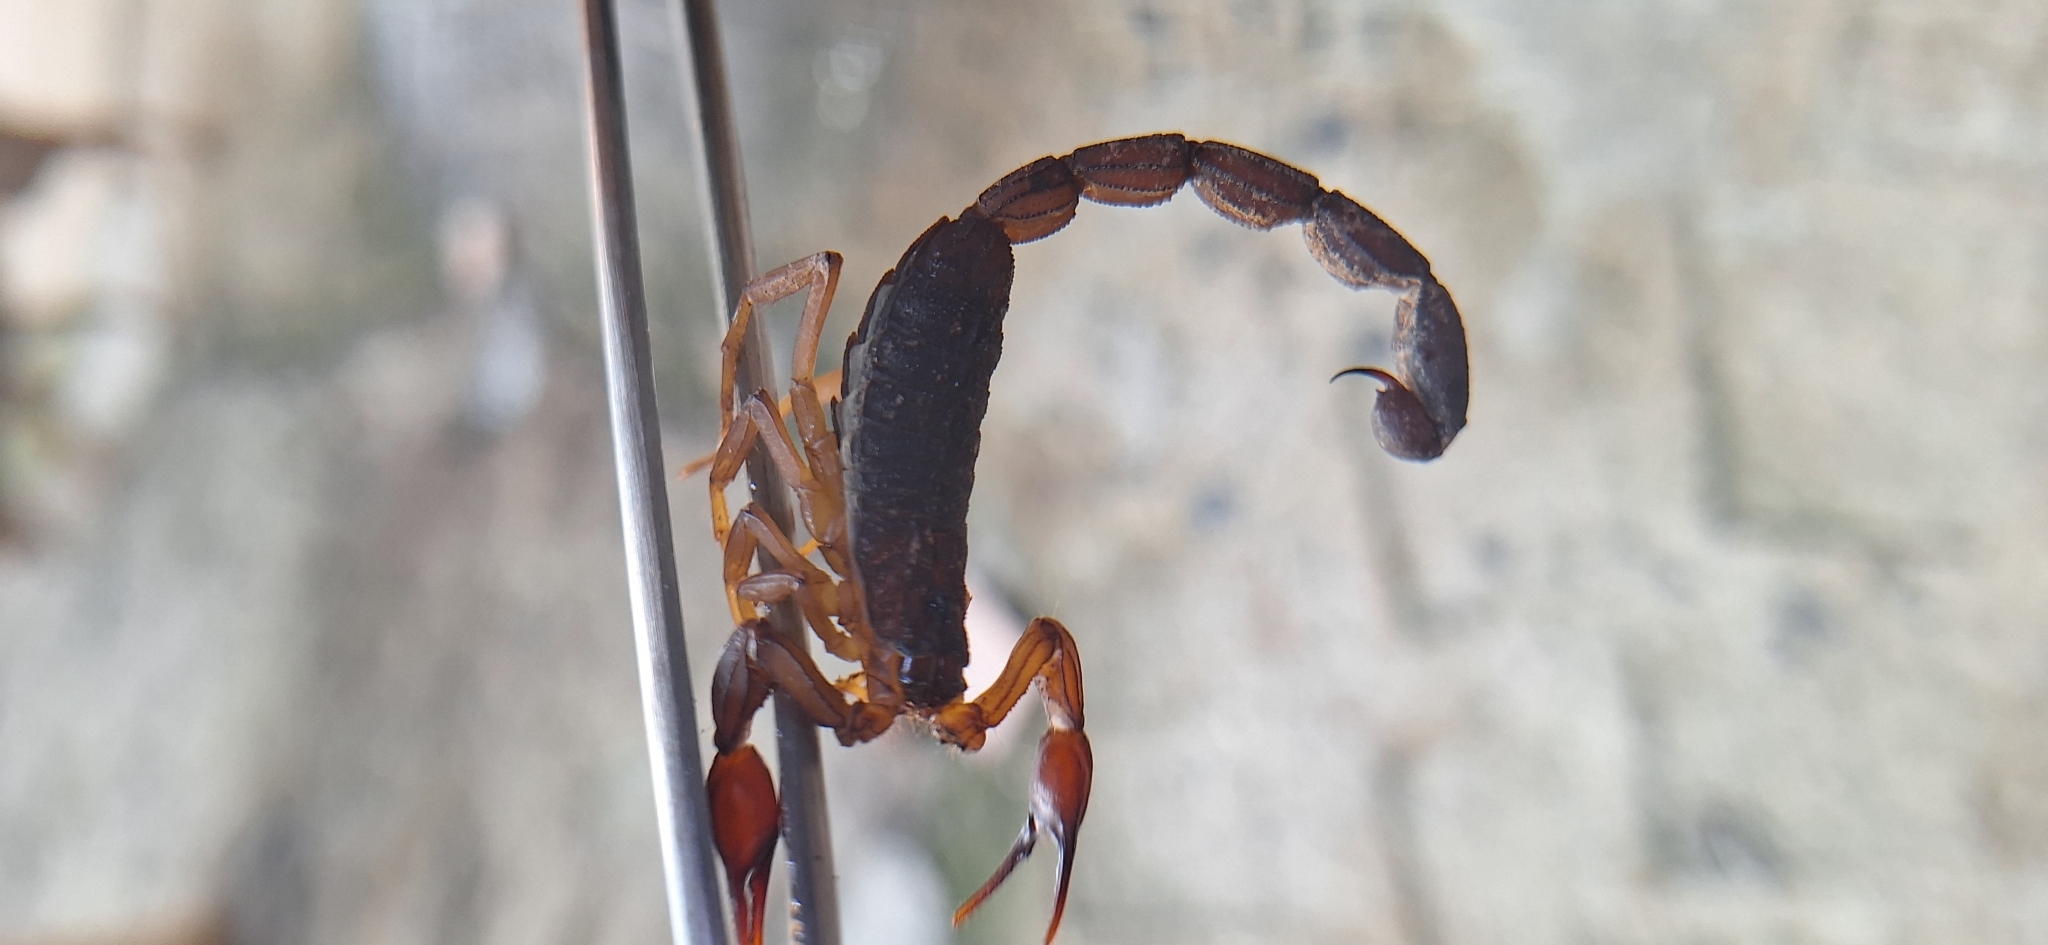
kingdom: Animalia
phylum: Arthropoda
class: Arachnida
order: Scorpiones
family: Buthidae
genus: Centruroides
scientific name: Centruroides granosus
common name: Scorpions
